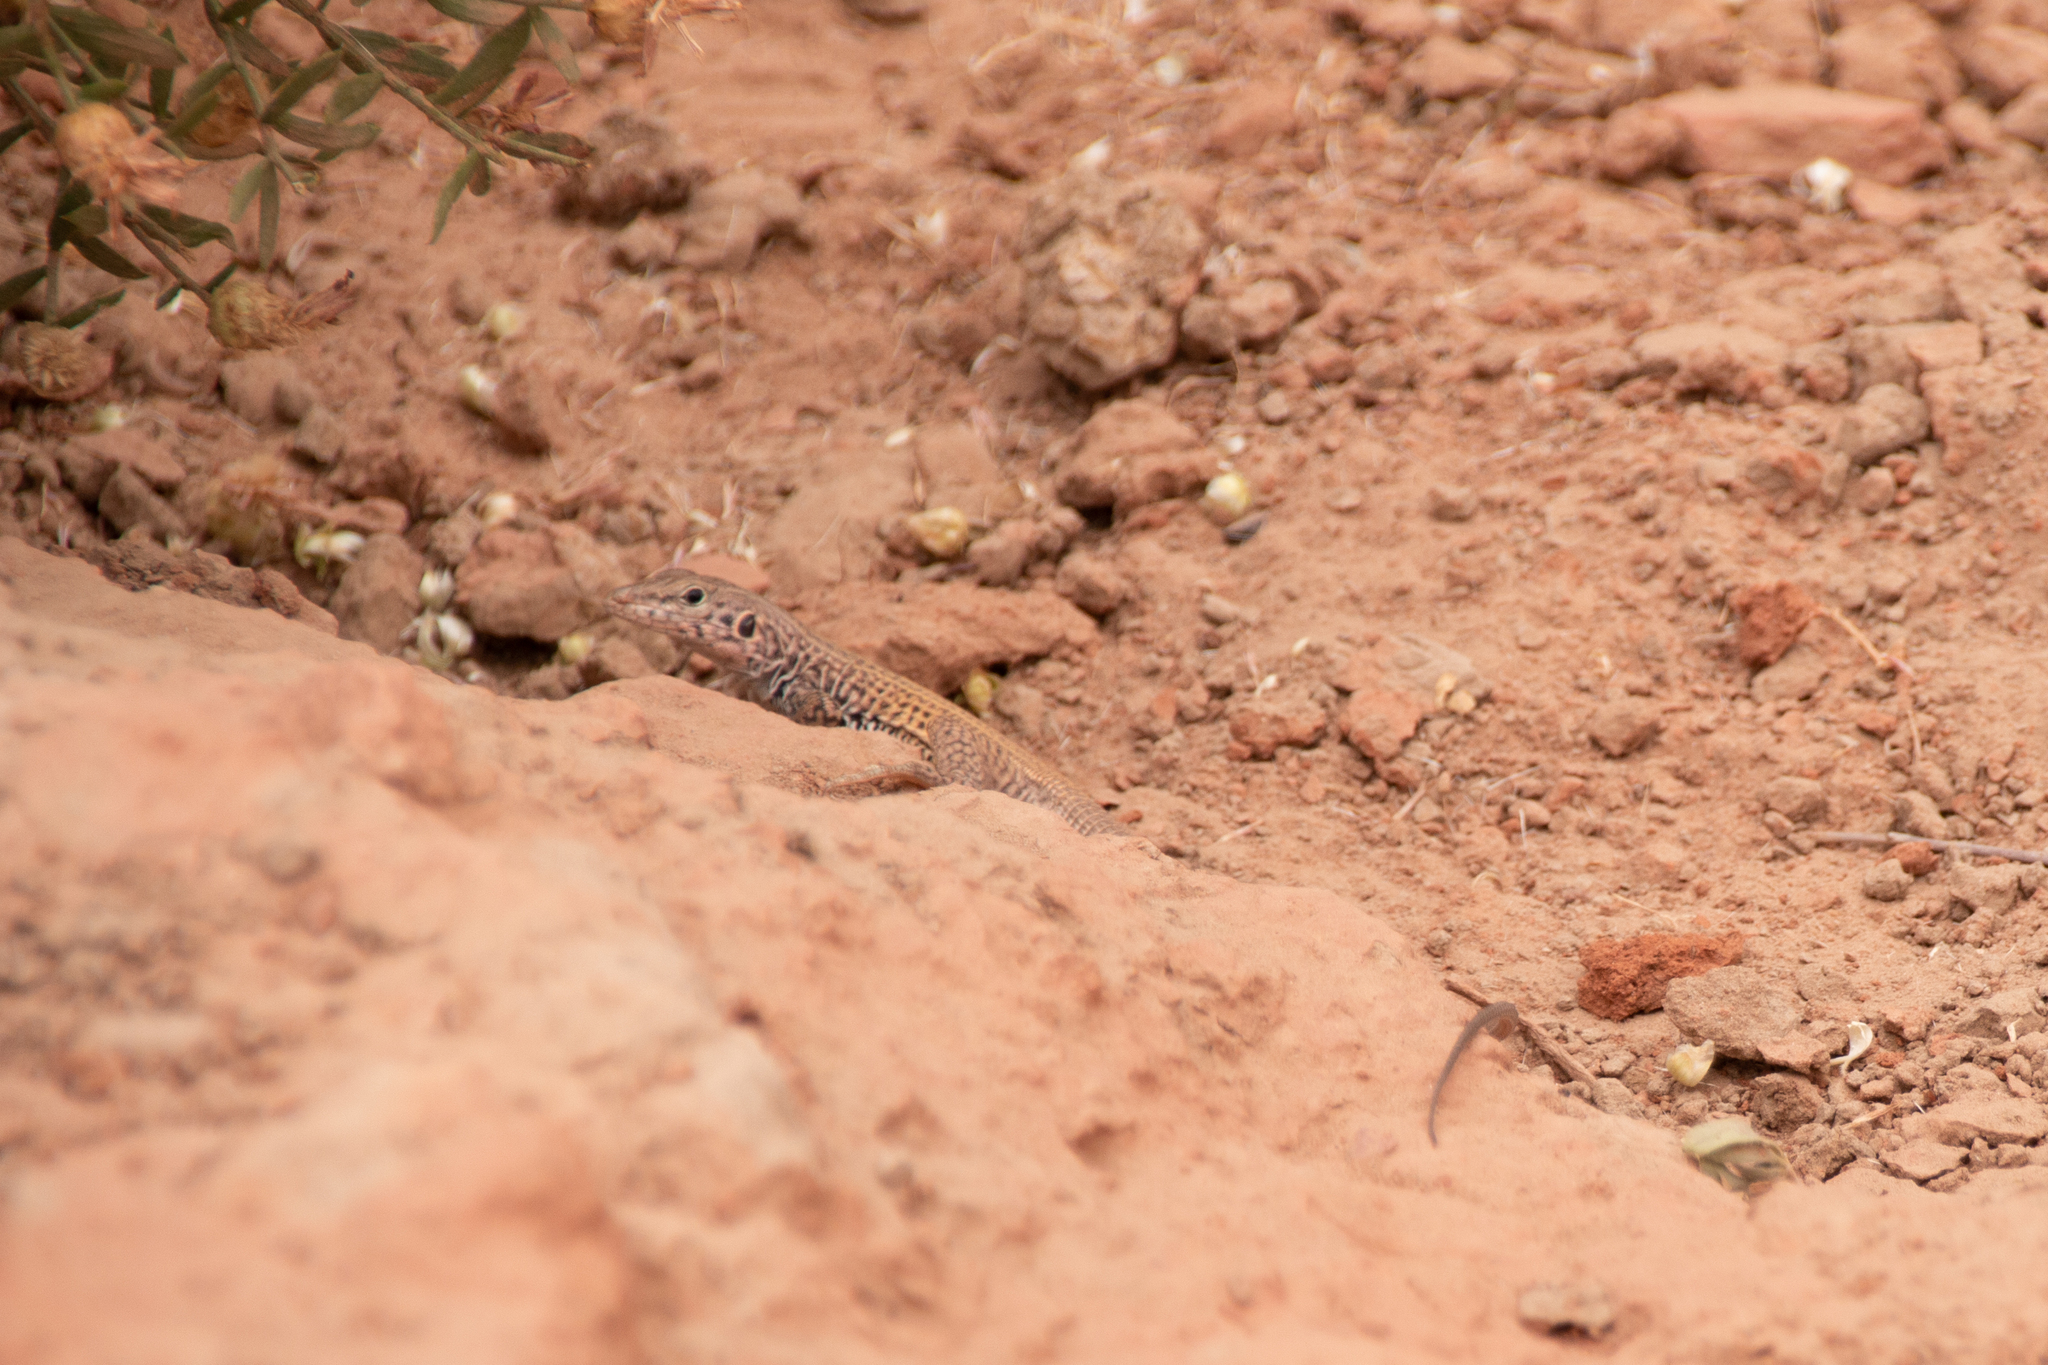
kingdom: Animalia
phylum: Chordata
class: Squamata
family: Teiidae
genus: Aspidoscelis
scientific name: Aspidoscelis tigris
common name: Tiger whiptail
